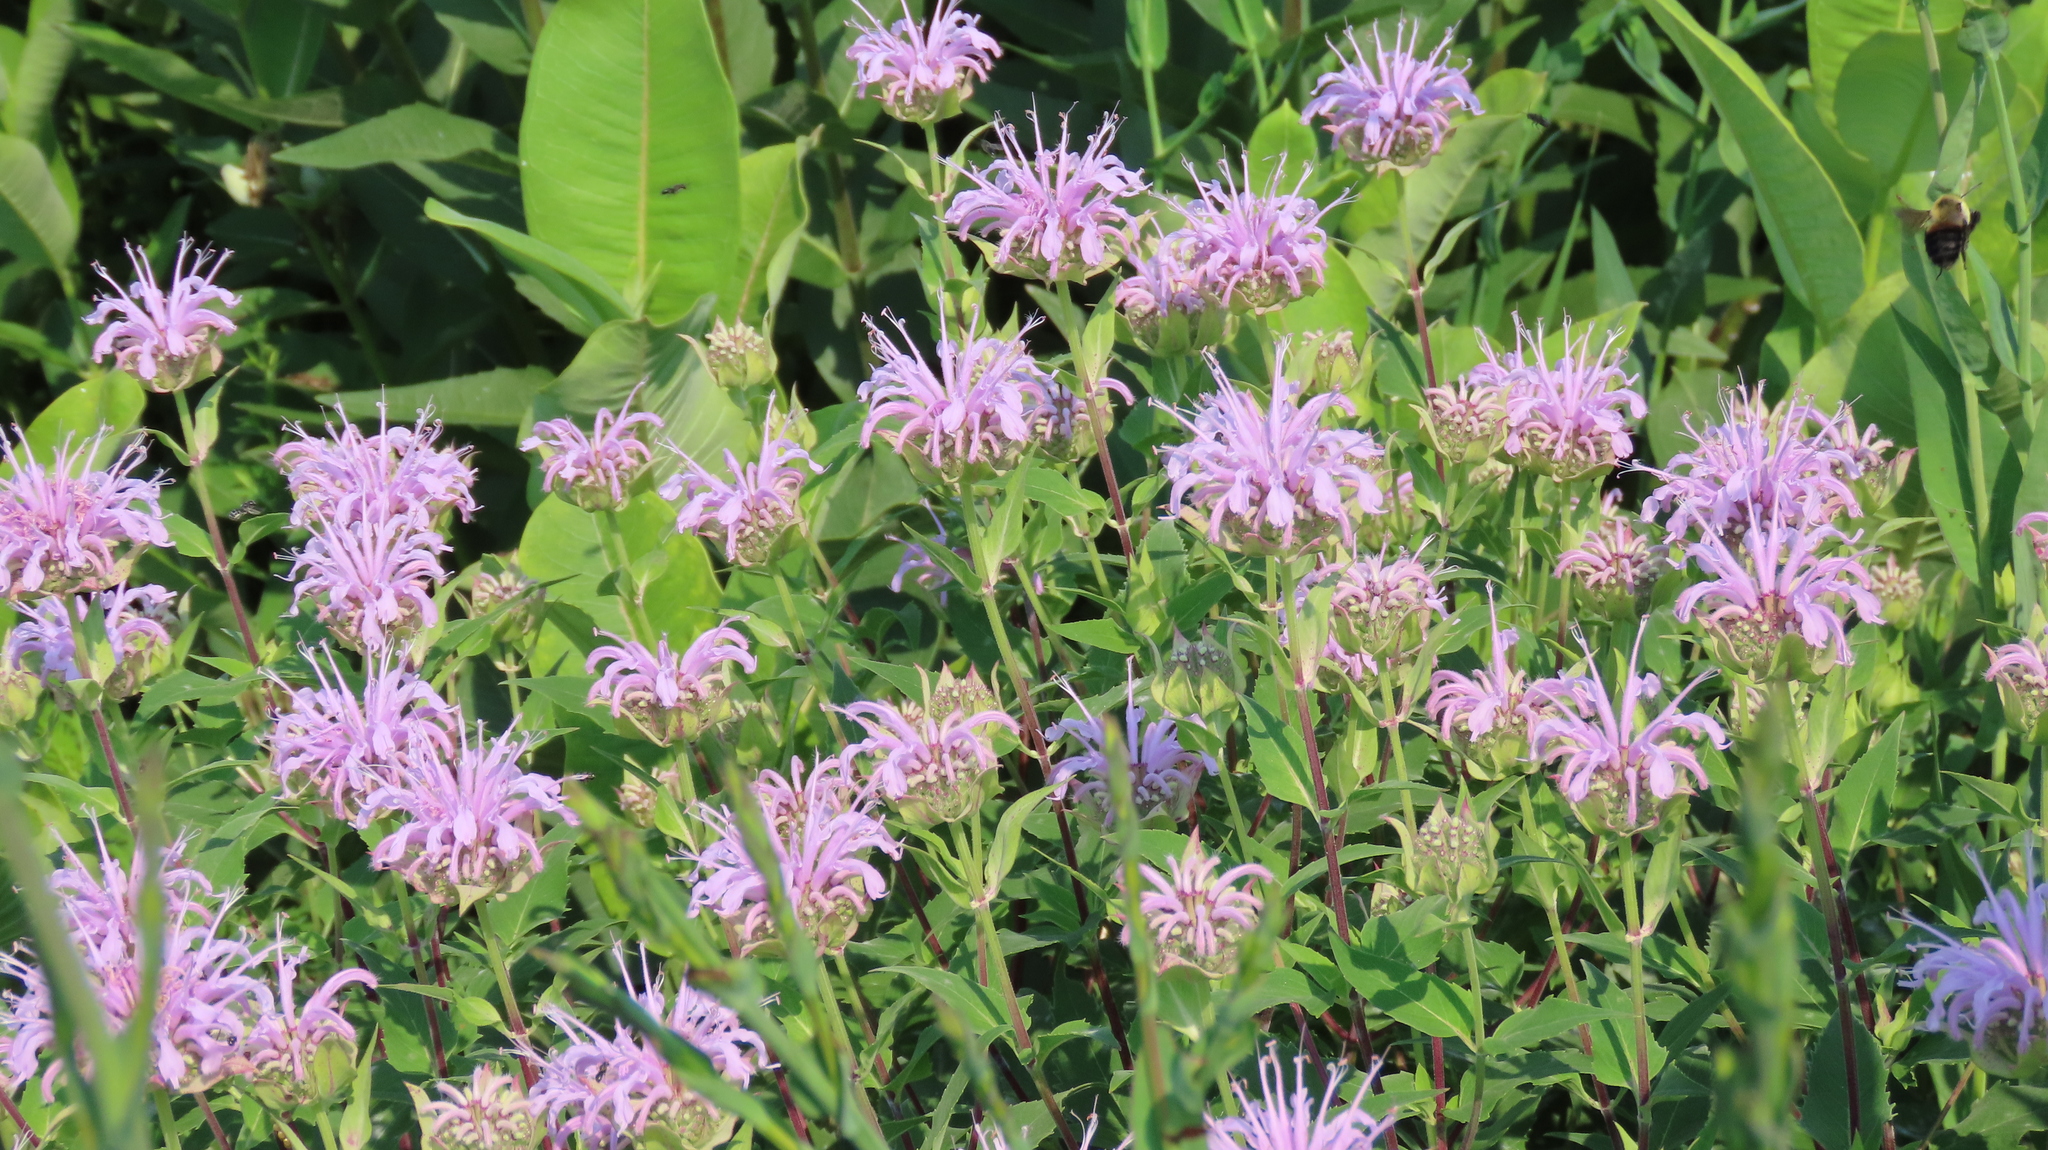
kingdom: Plantae
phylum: Tracheophyta
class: Magnoliopsida
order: Lamiales
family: Lamiaceae
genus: Monarda
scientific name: Monarda fistulosa
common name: Purple beebalm
